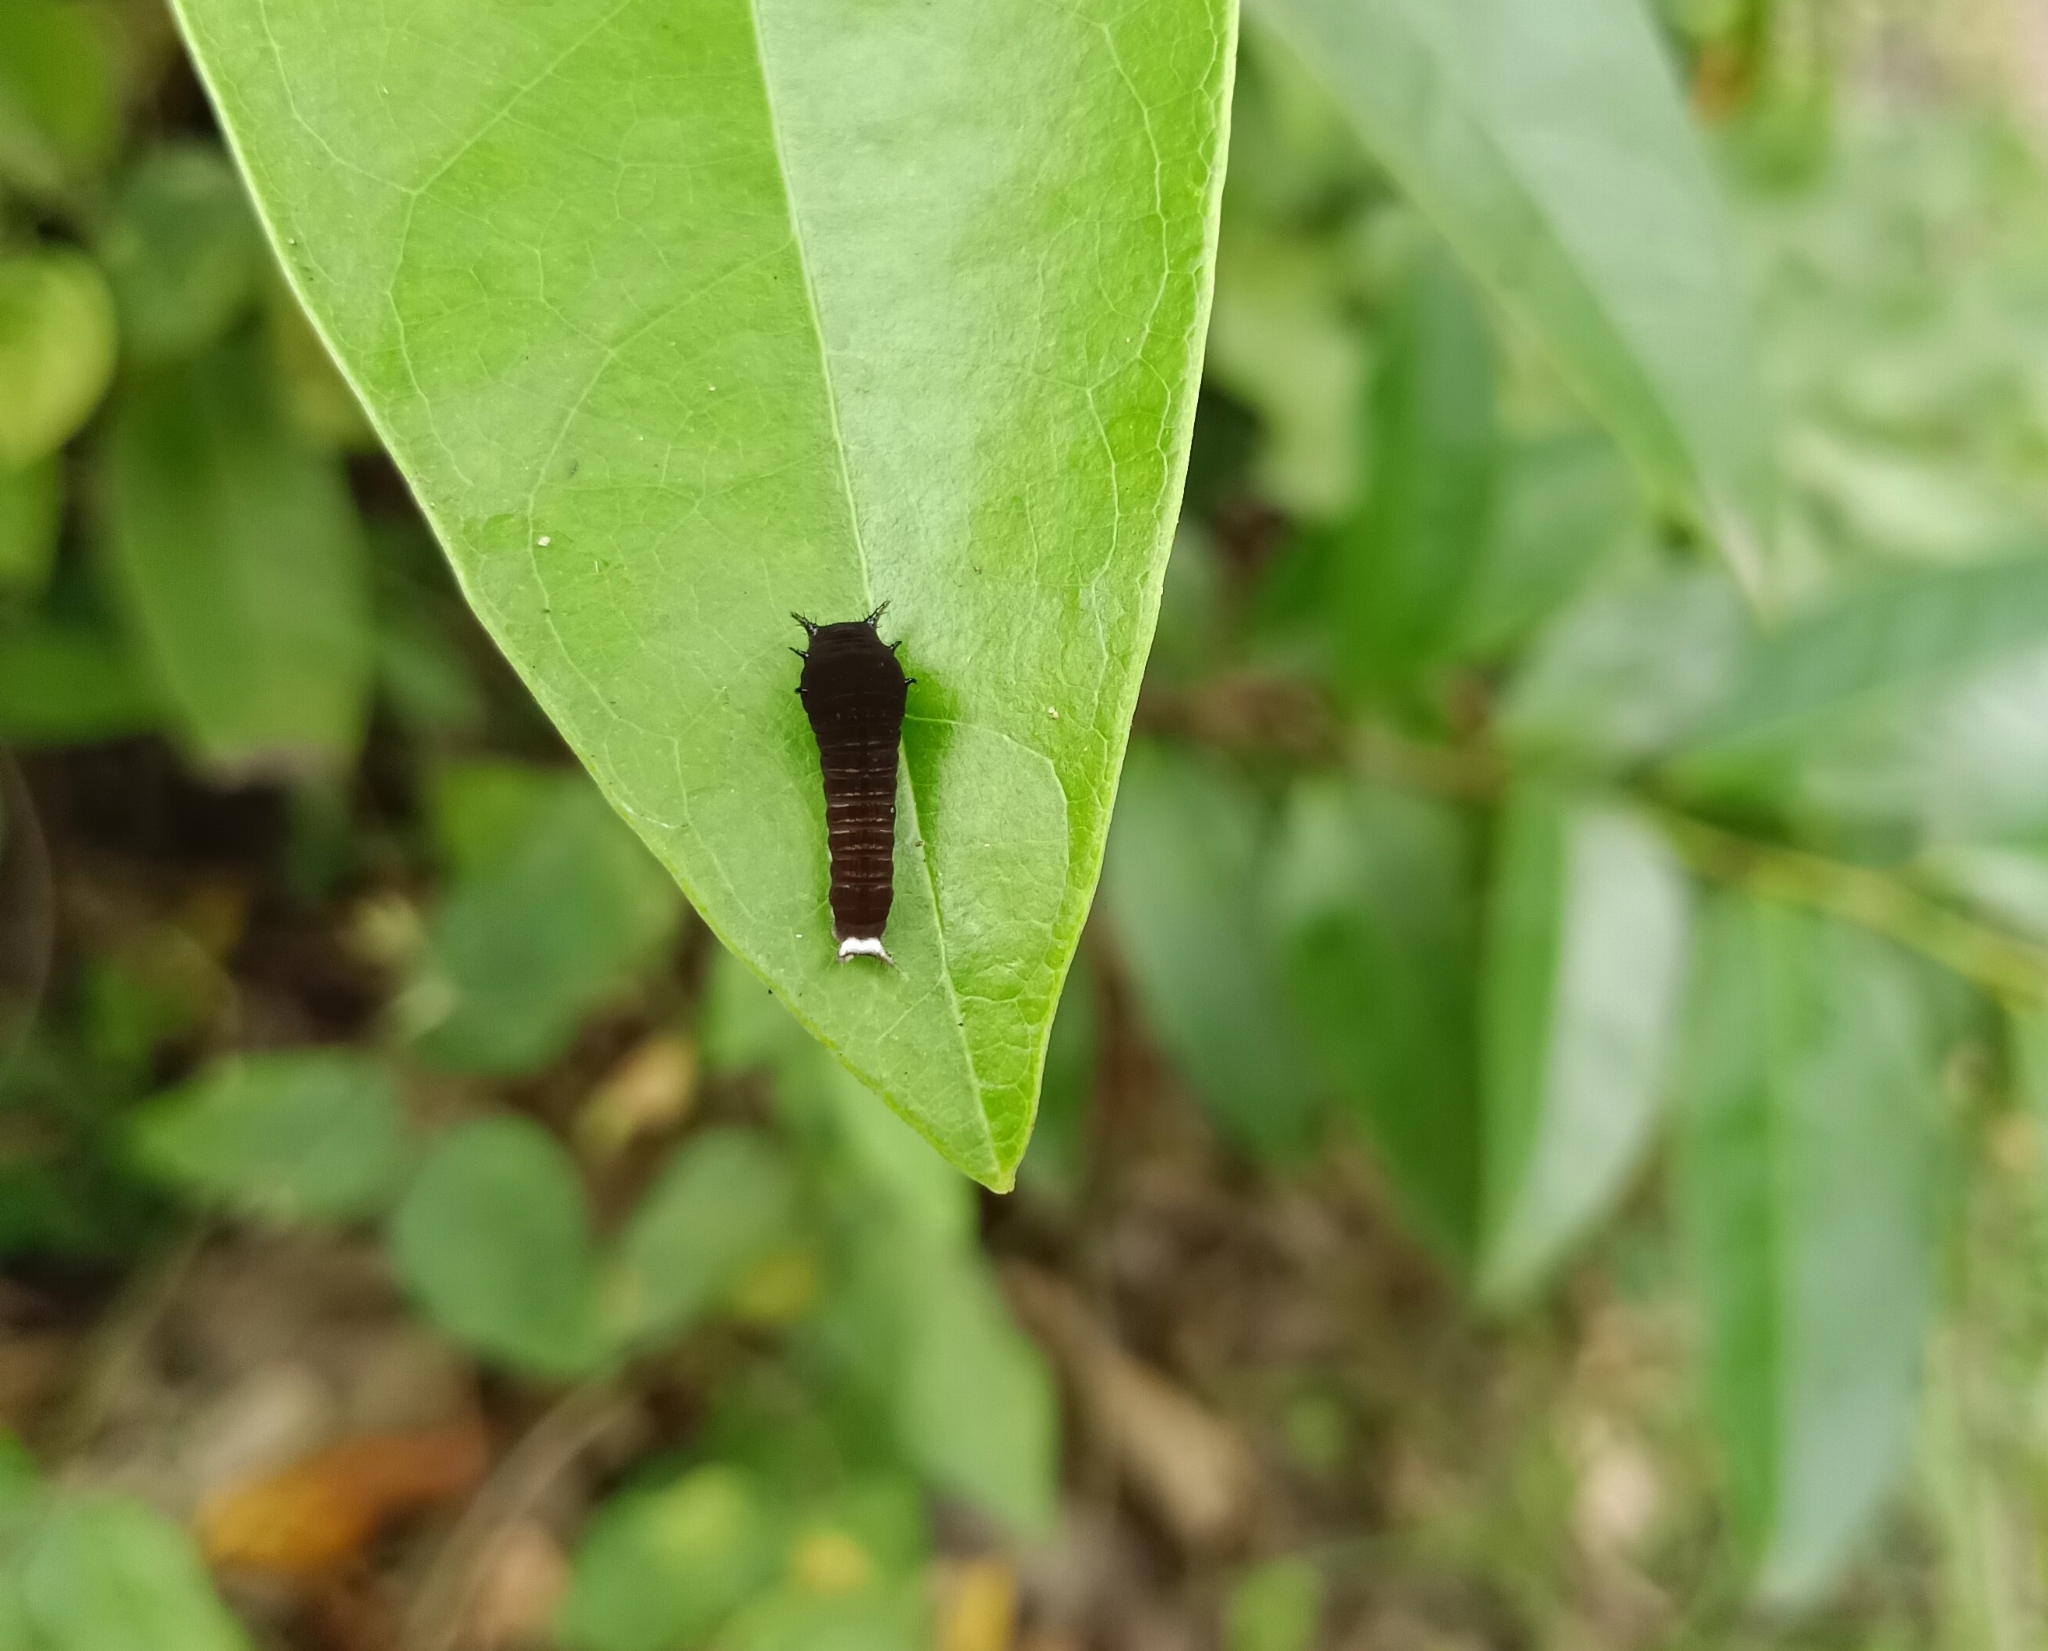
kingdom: Animalia
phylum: Arthropoda
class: Insecta
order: Lepidoptera
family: Papilionidae
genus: Graphium
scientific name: Graphium doson
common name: Common jay
